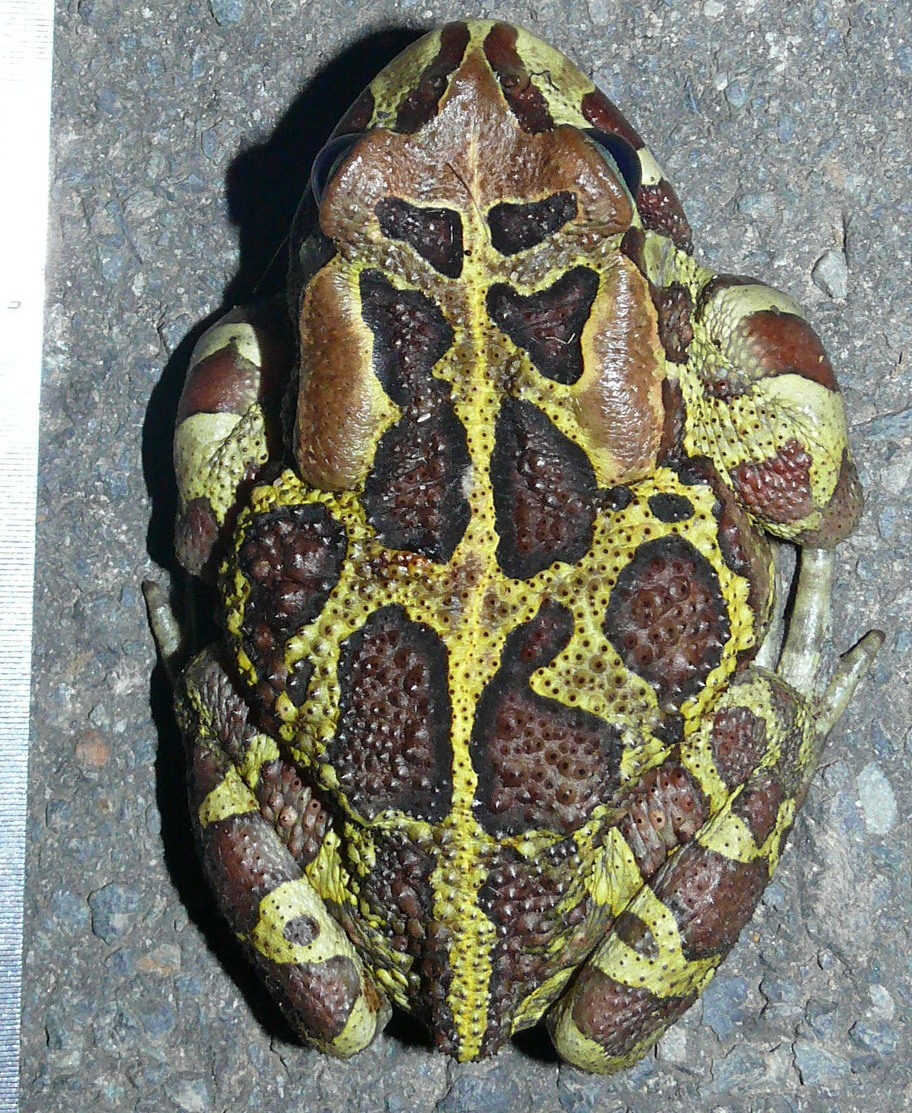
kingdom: Animalia
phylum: Chordata
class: Amphibia
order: Anura
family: Bufonidae
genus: Sclerophrys
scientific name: Sclerophrys pantherina
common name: Panther toad
